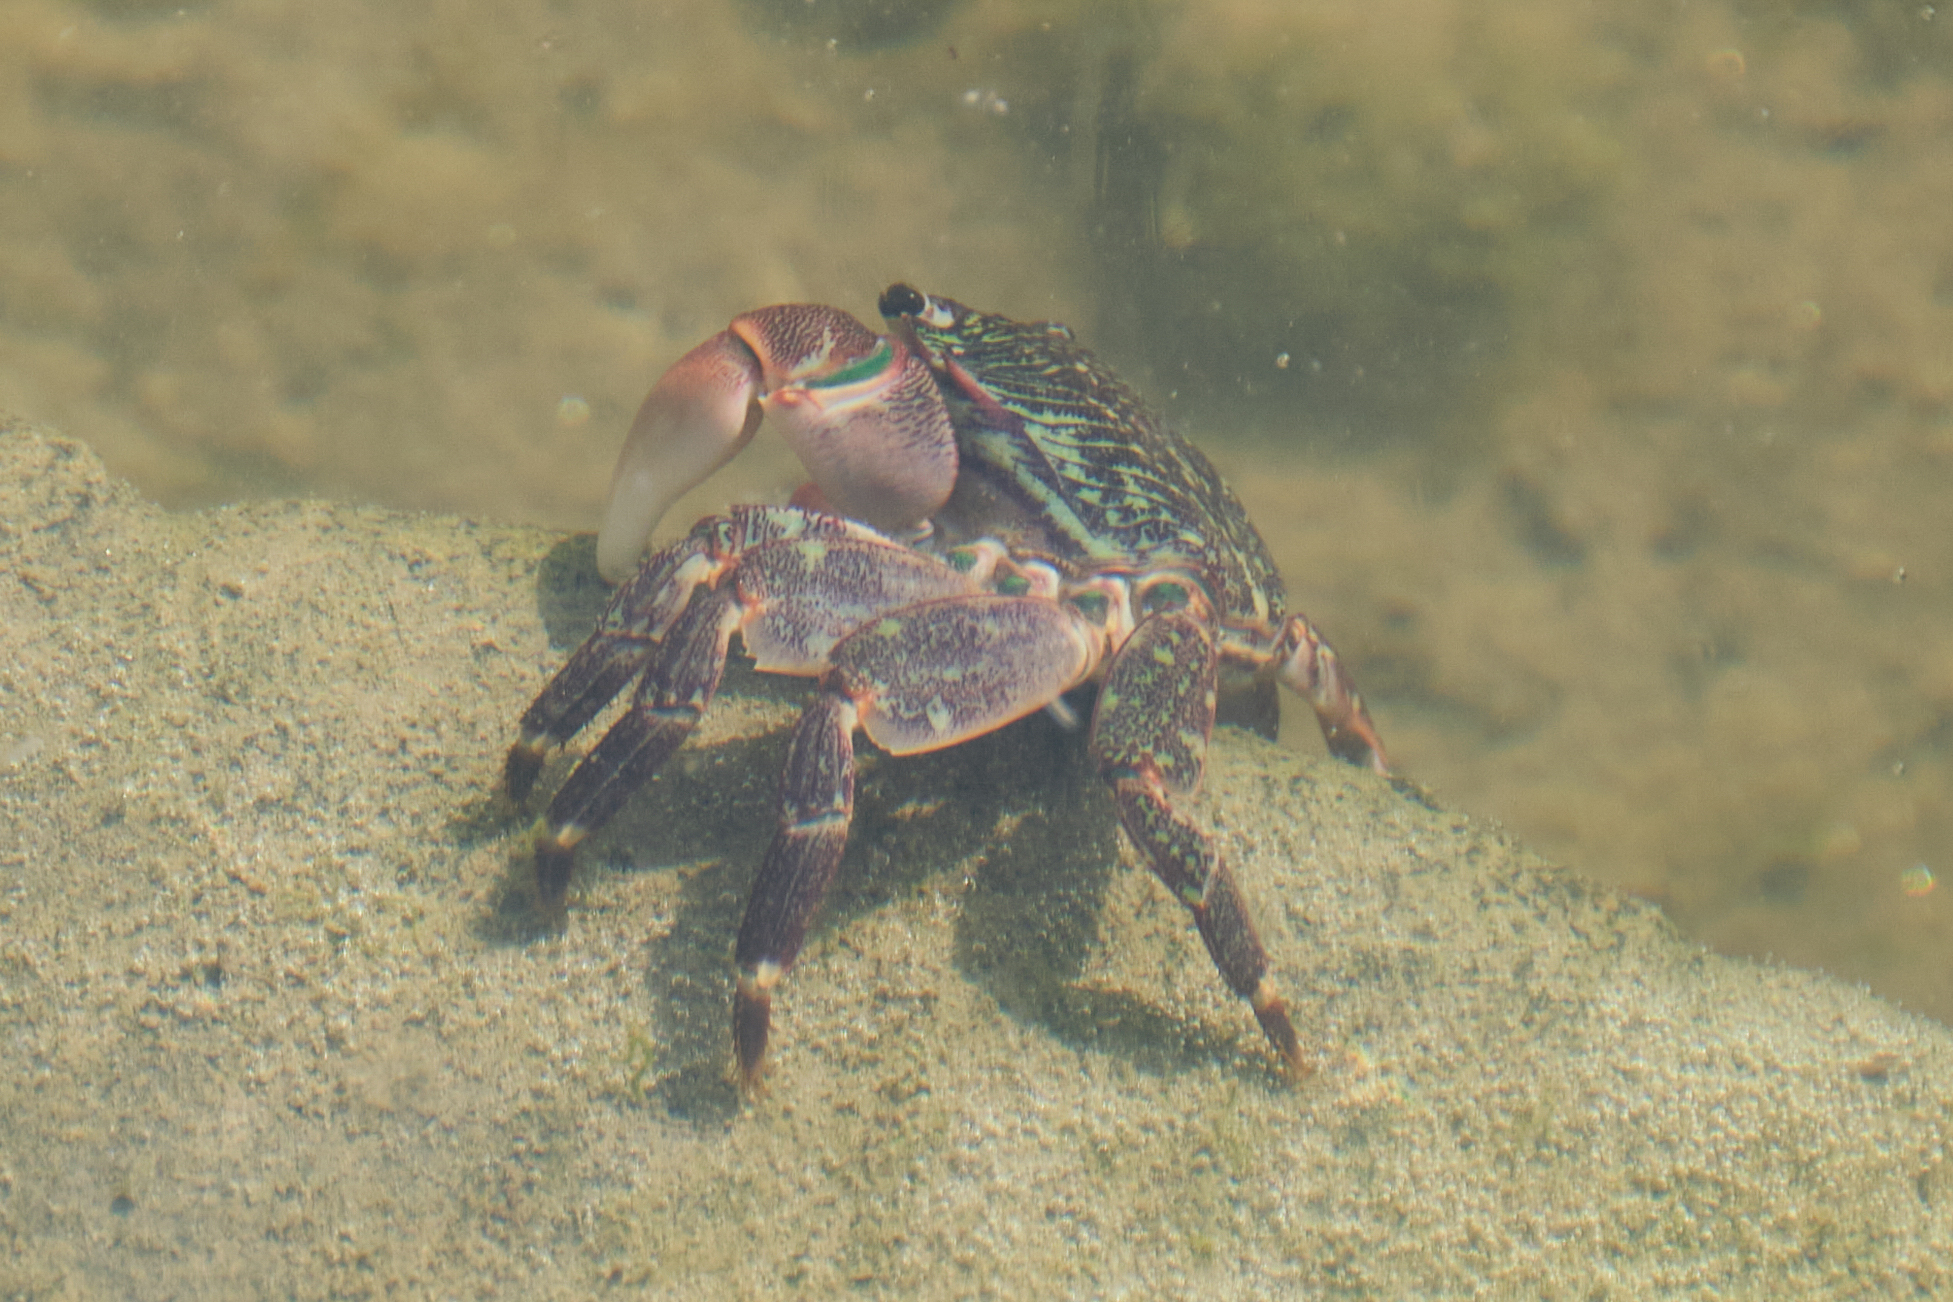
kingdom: Animalia
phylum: Arthropoda
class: Malacostraca
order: Decapoda
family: Grapsidae
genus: Pachygrapsus
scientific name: Pachygrapsus crassipes
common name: Striped shore crab
